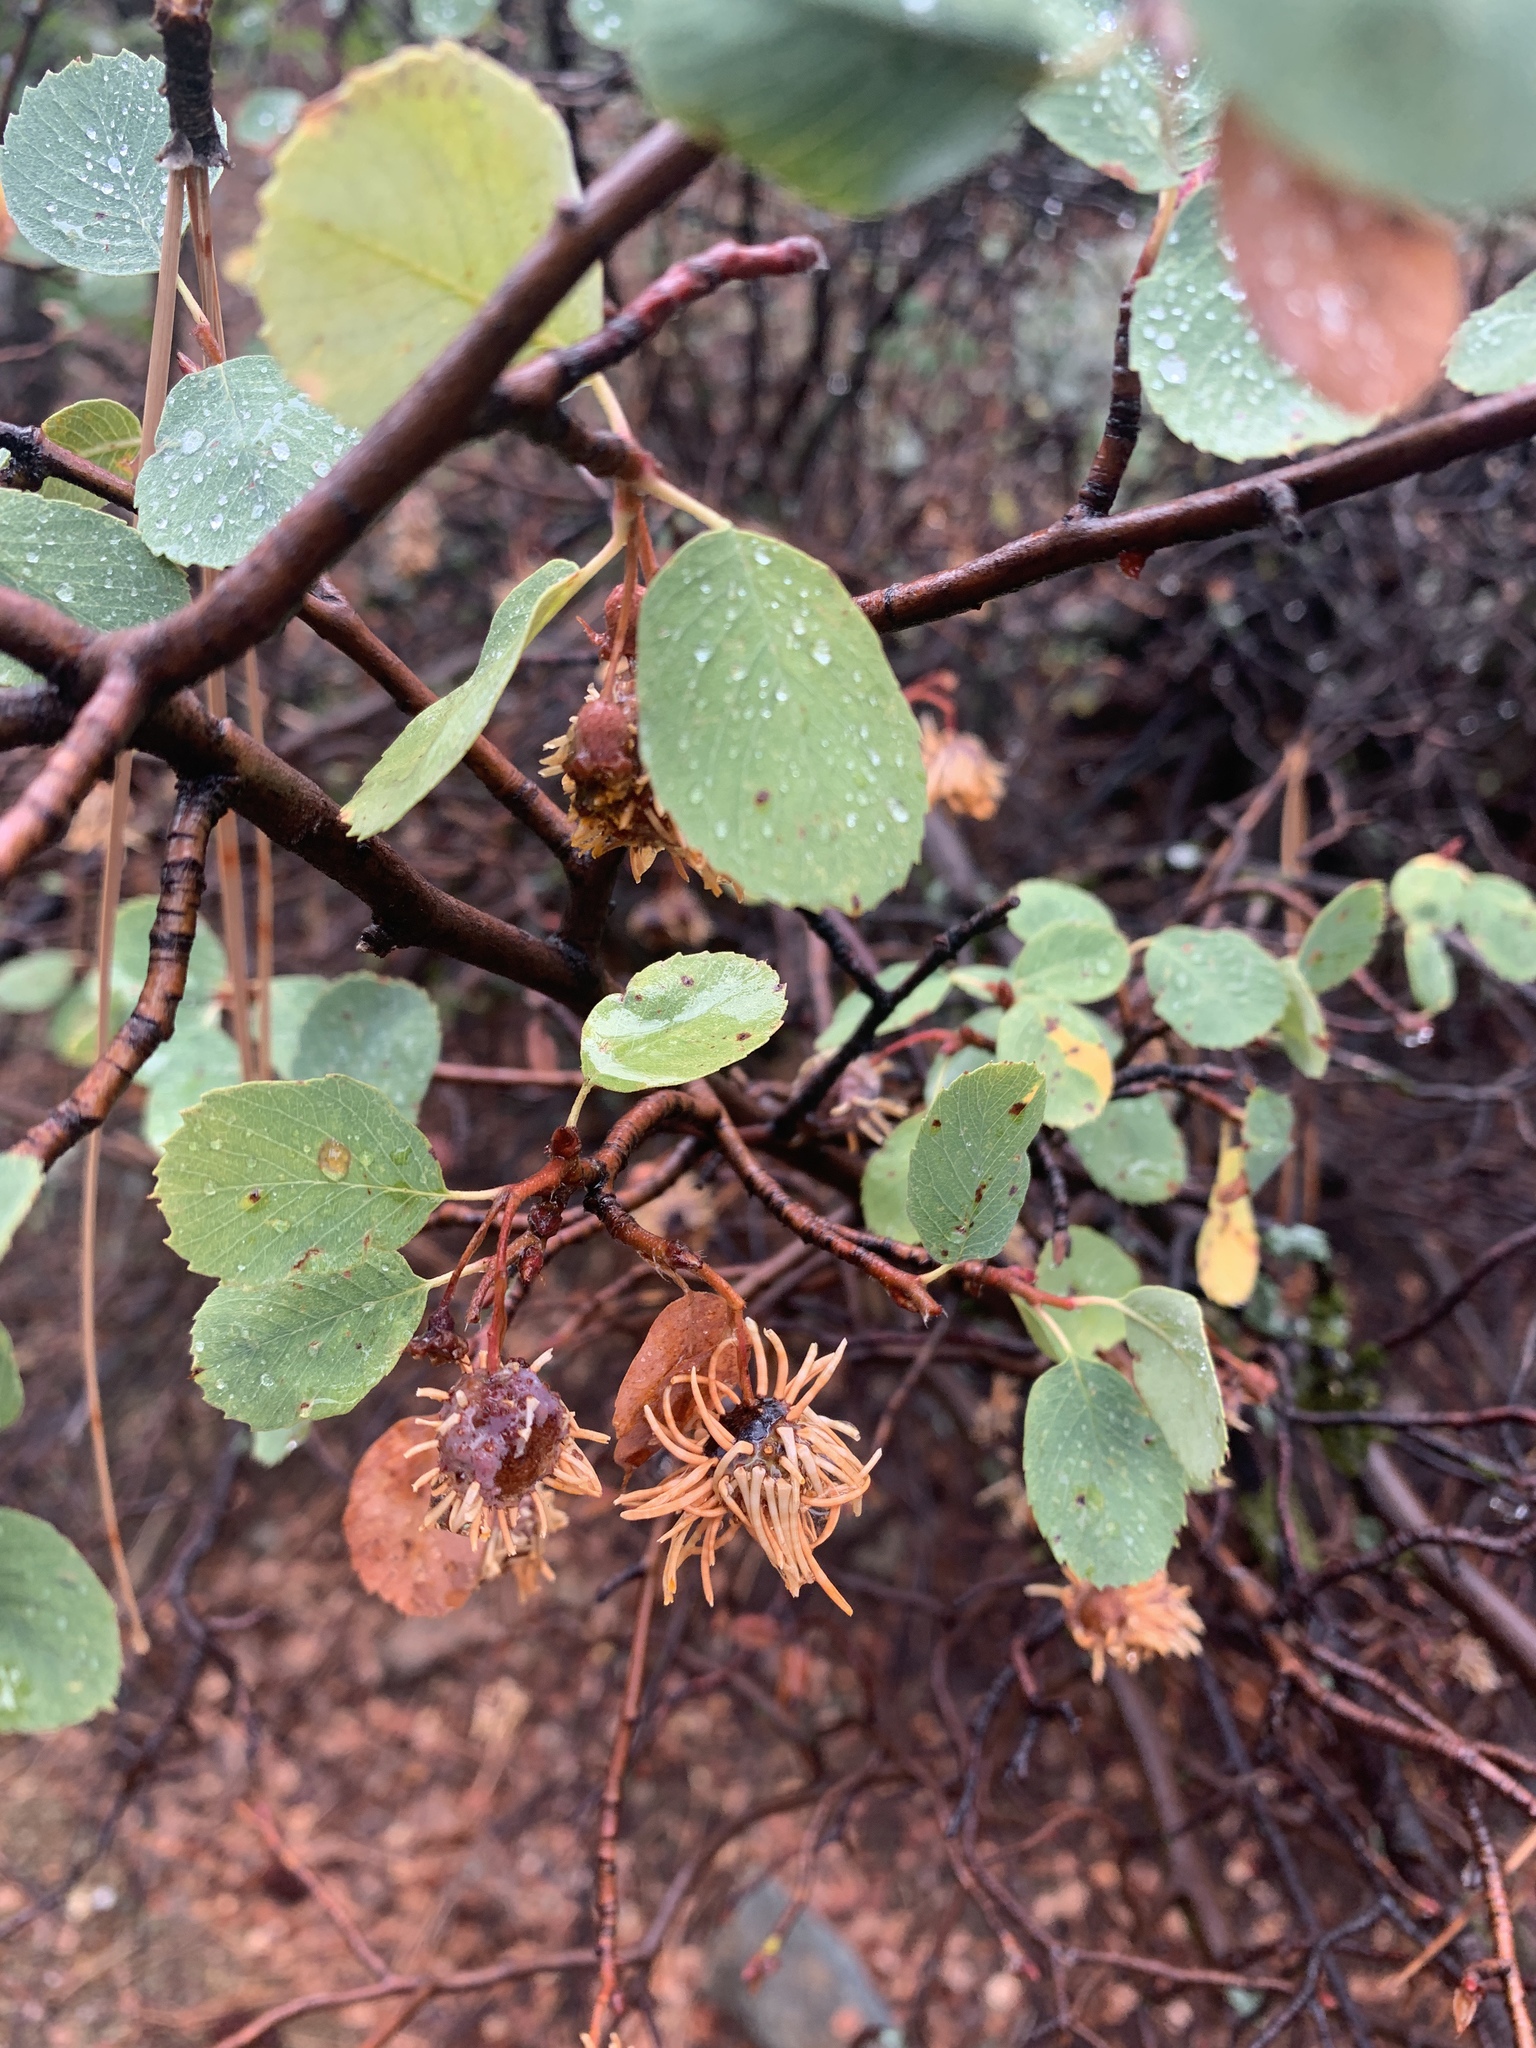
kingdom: Plantae
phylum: Tracheophyta
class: Magnoliopsida
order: Rosales
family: Rosaceae
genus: Amelanchier
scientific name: Amelanchier utahensis
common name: Utah serviceberry
